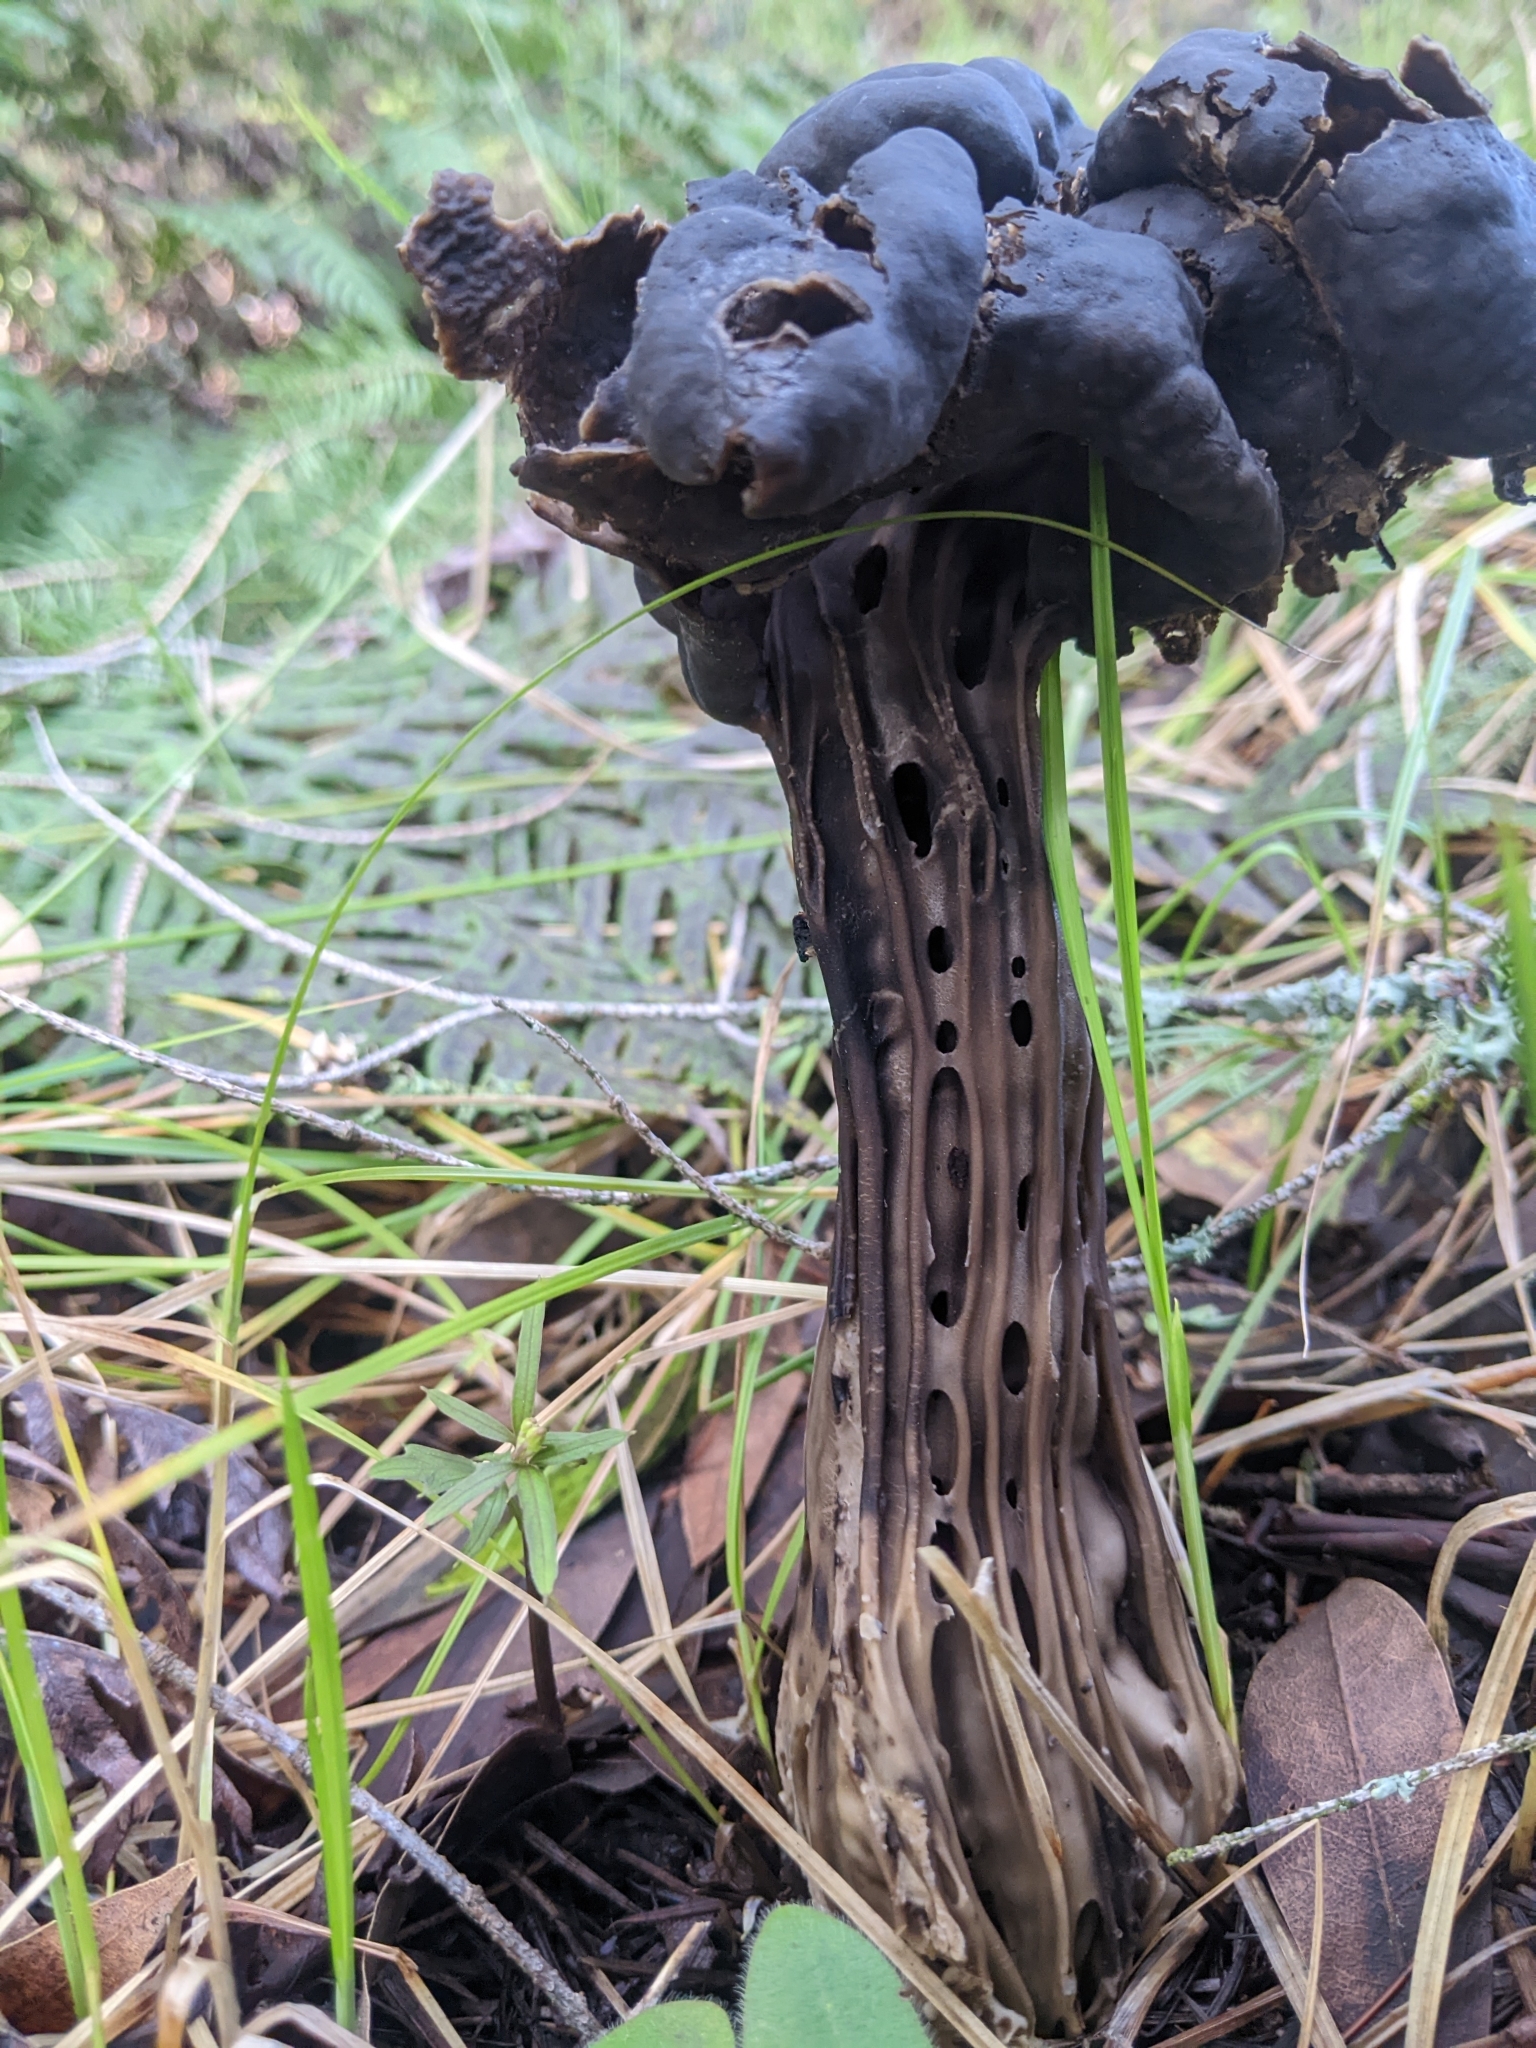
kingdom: Fungi
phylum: Ascomycota
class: Pezizomycetes
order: Pezizales
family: Helvellaceae
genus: Helvella
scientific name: Helvella
